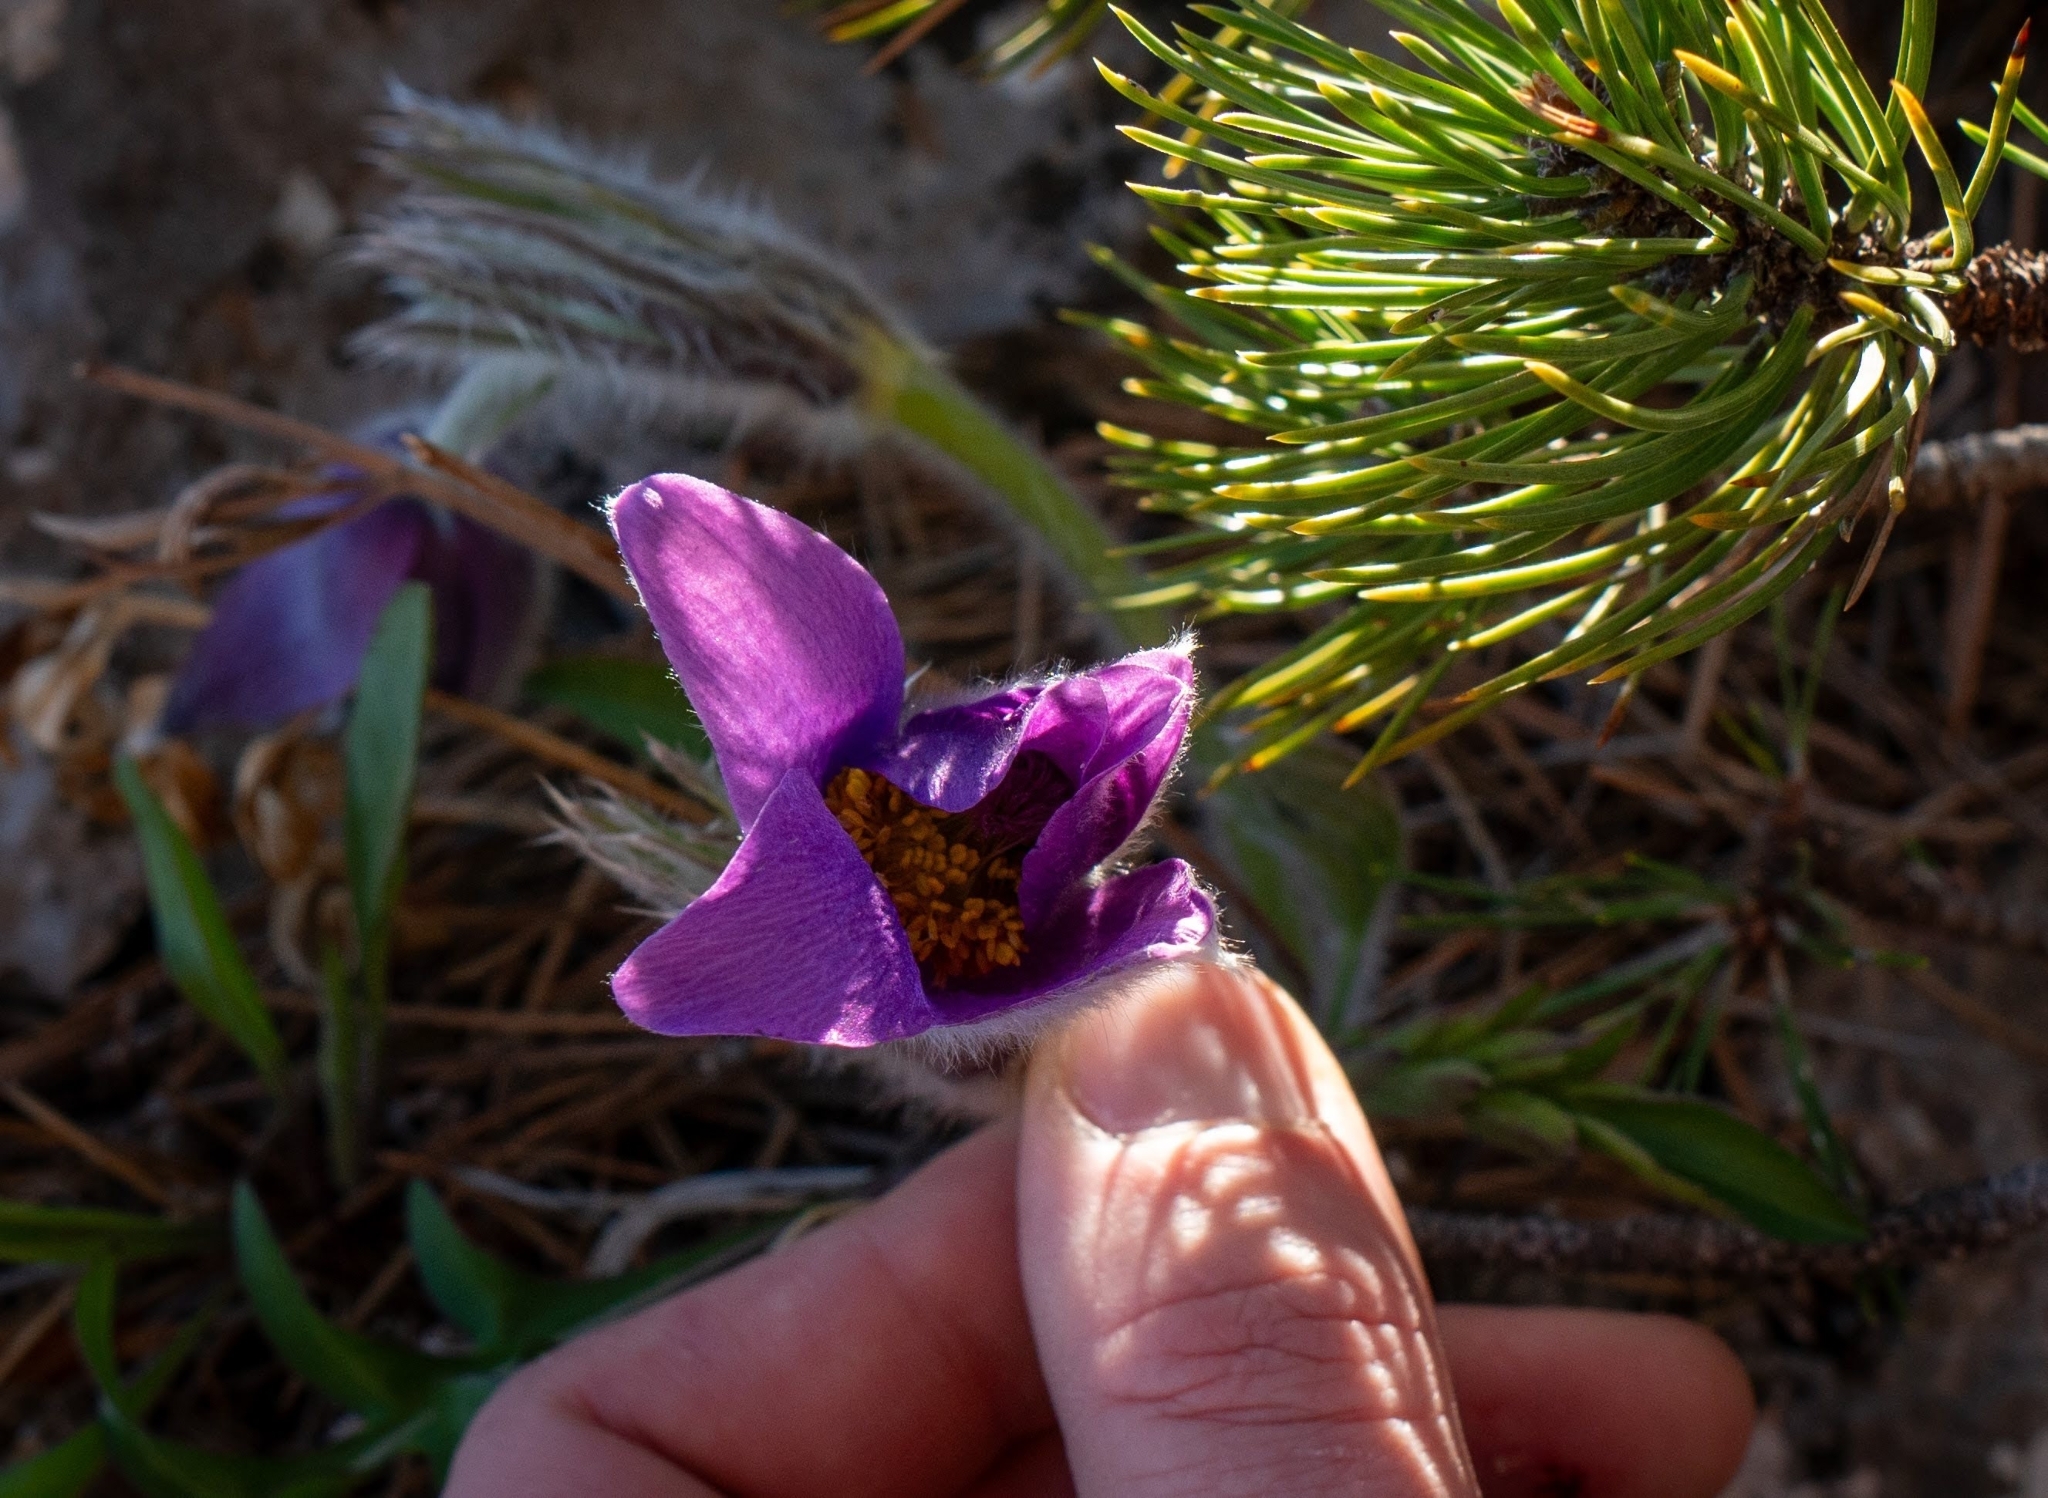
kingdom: Plantae
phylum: Tracheophyta
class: Magnoliopsida
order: Ranunculales
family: Ranunculaceae
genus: Pulsatilla
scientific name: Pulsatilla grandis
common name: Greater pasque flower
